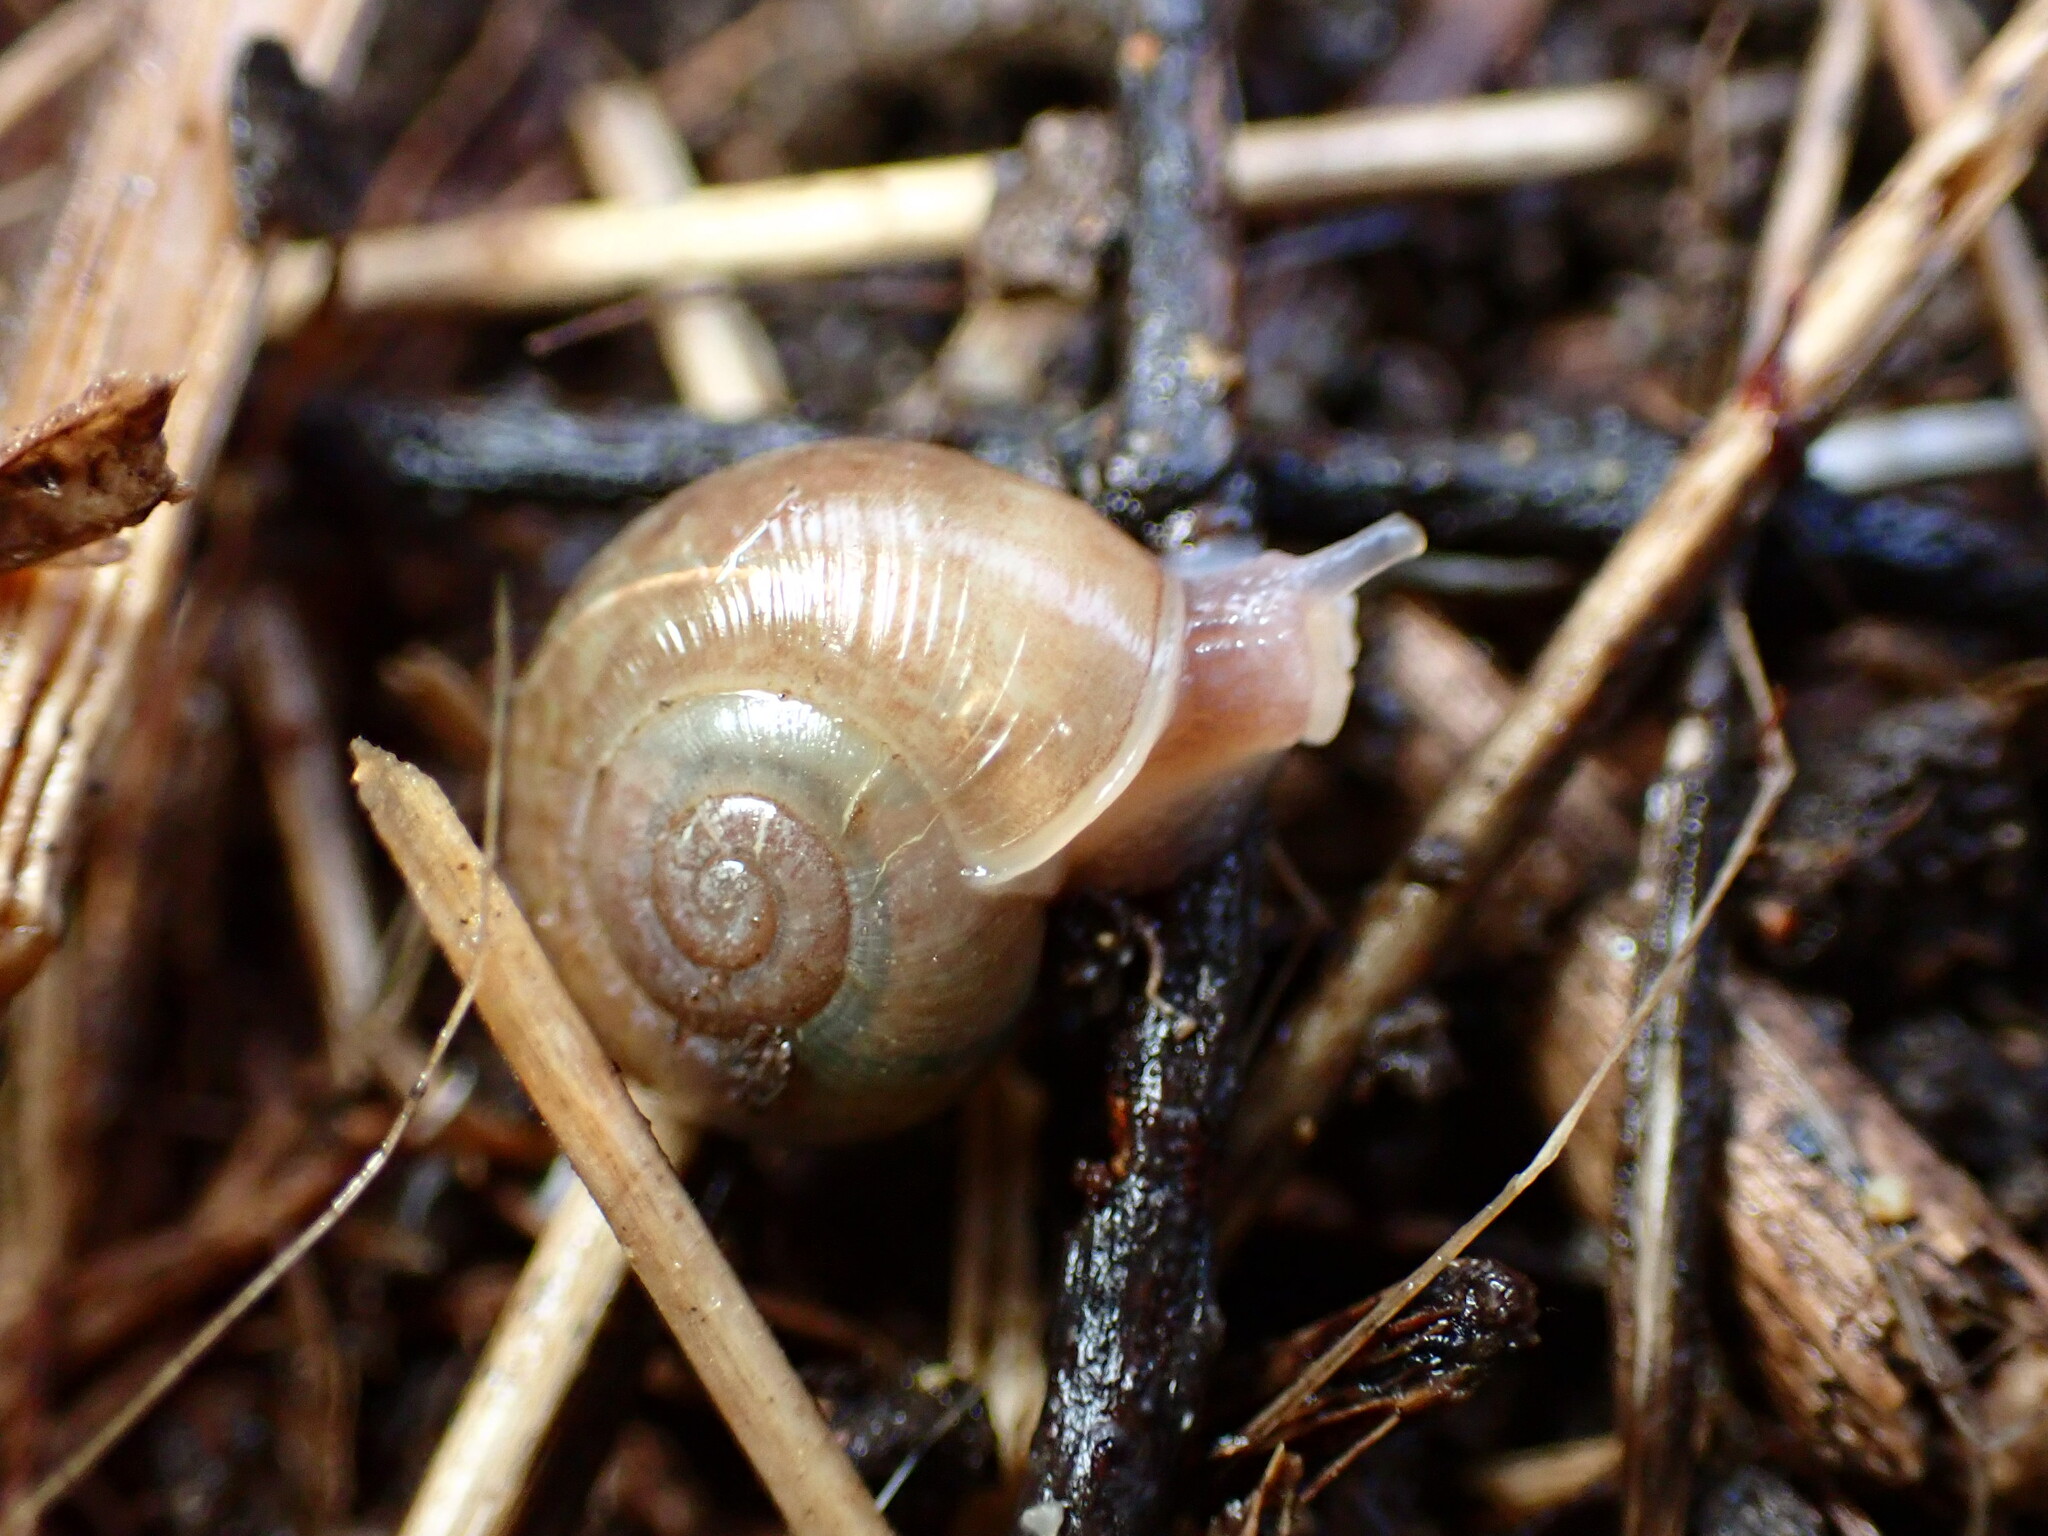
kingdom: Animalia
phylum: Mollusca
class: Gastropoda
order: Stylommatophora
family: Haplotrematidae
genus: Haplotrema
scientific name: Haplotrema minimum
